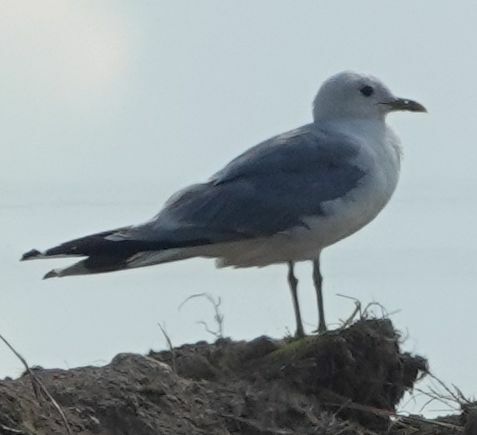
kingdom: Animalia
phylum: Chordata
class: Aves
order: Charadriiformes
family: Laridae
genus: Larus
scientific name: Larus canus
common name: Mew gull
